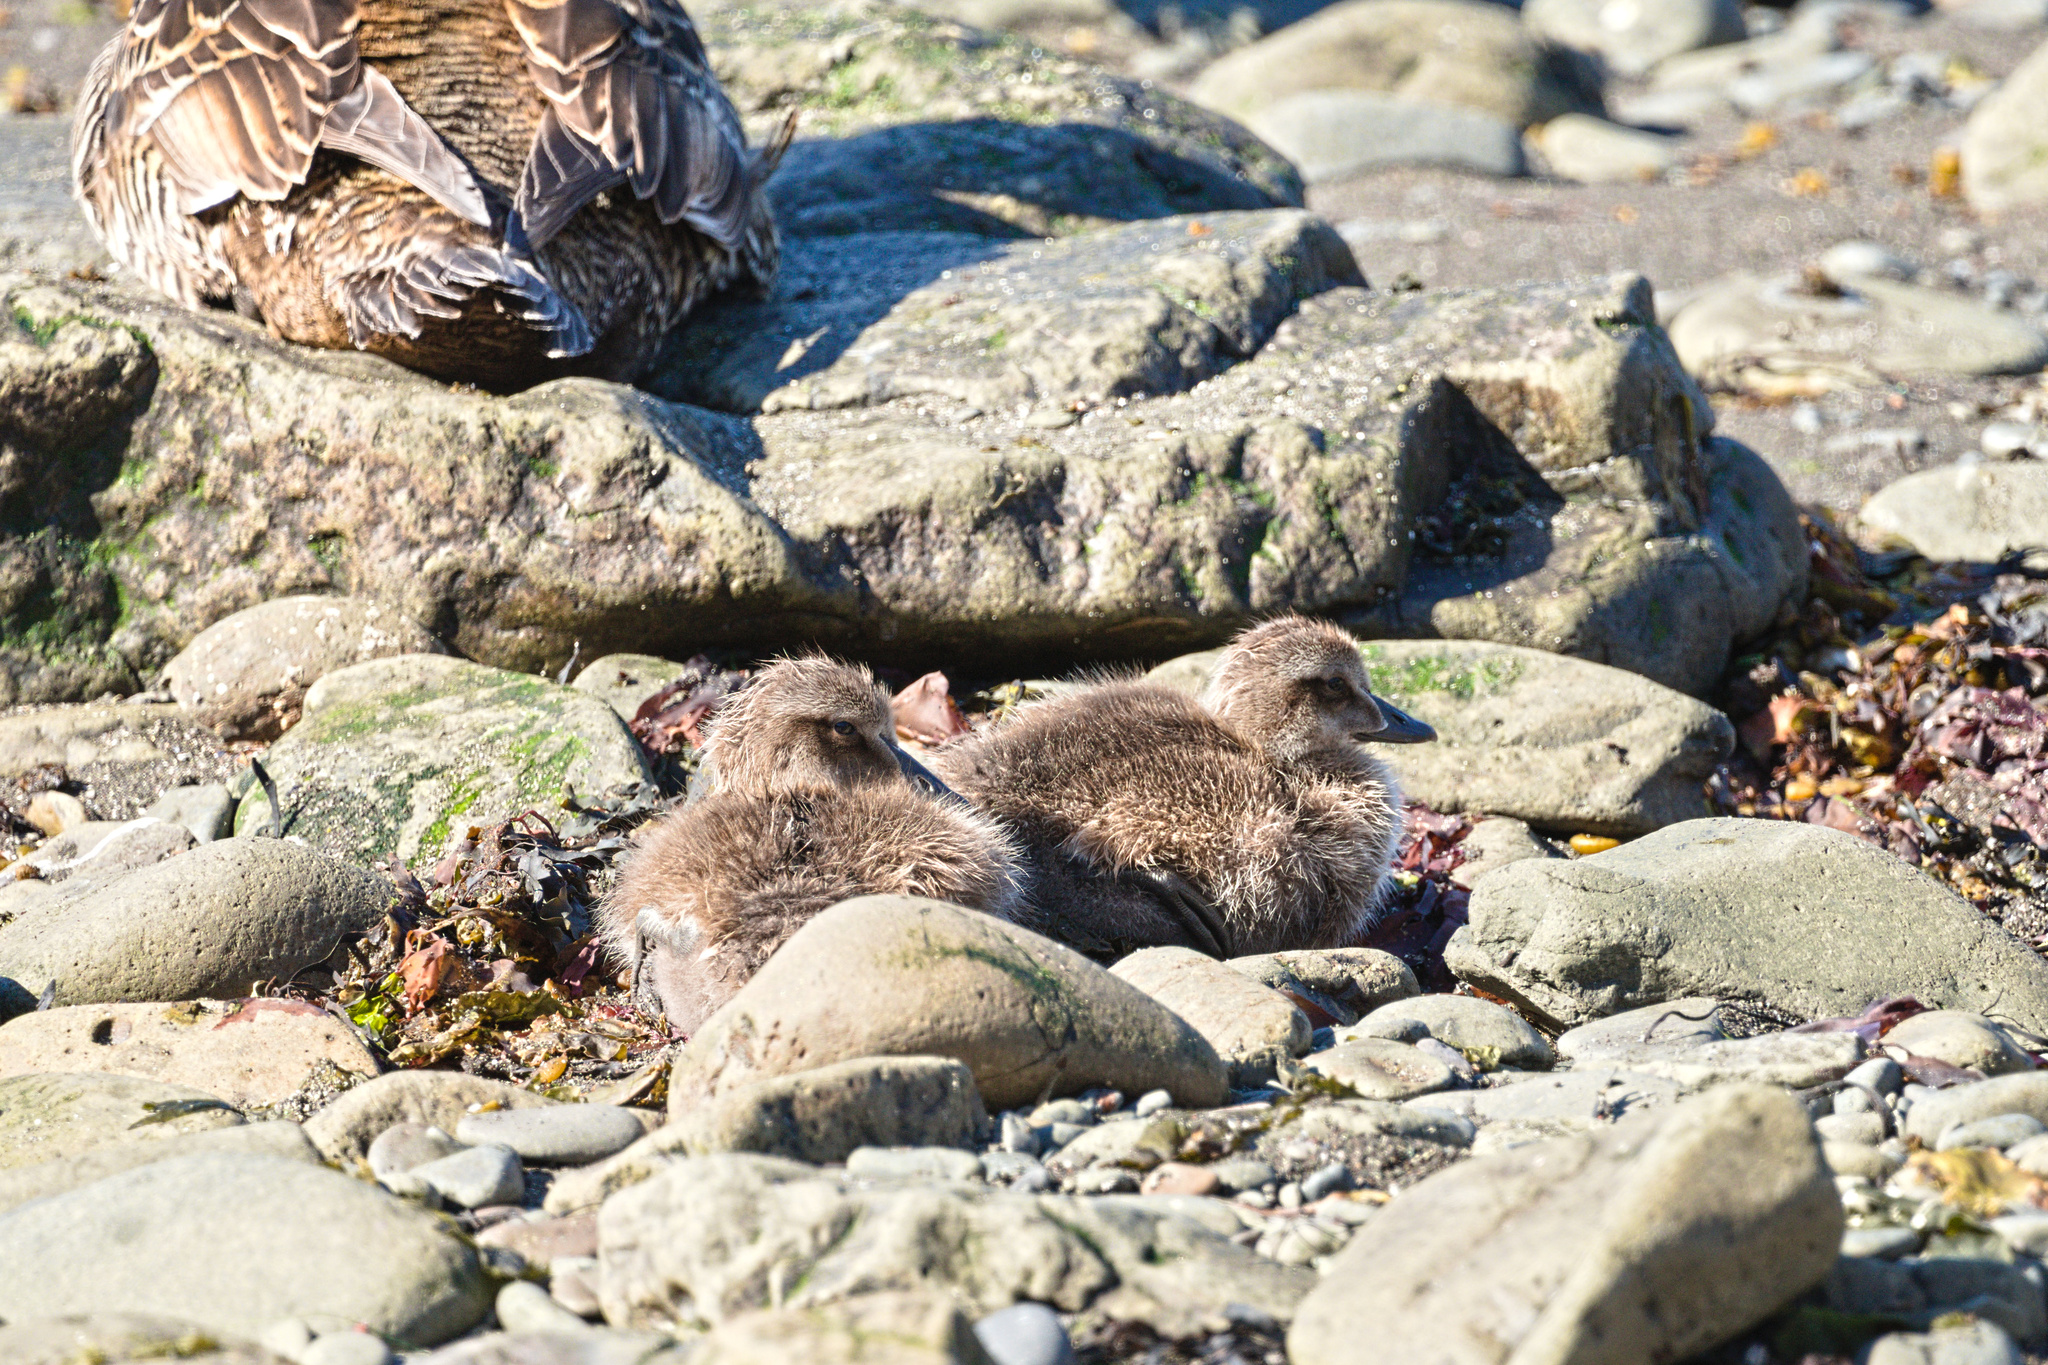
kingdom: Animalia
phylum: Chordata
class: Aves
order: Anseriformes
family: Anatidae
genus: Somateria
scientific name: Somateria mollissima
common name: Common eider
